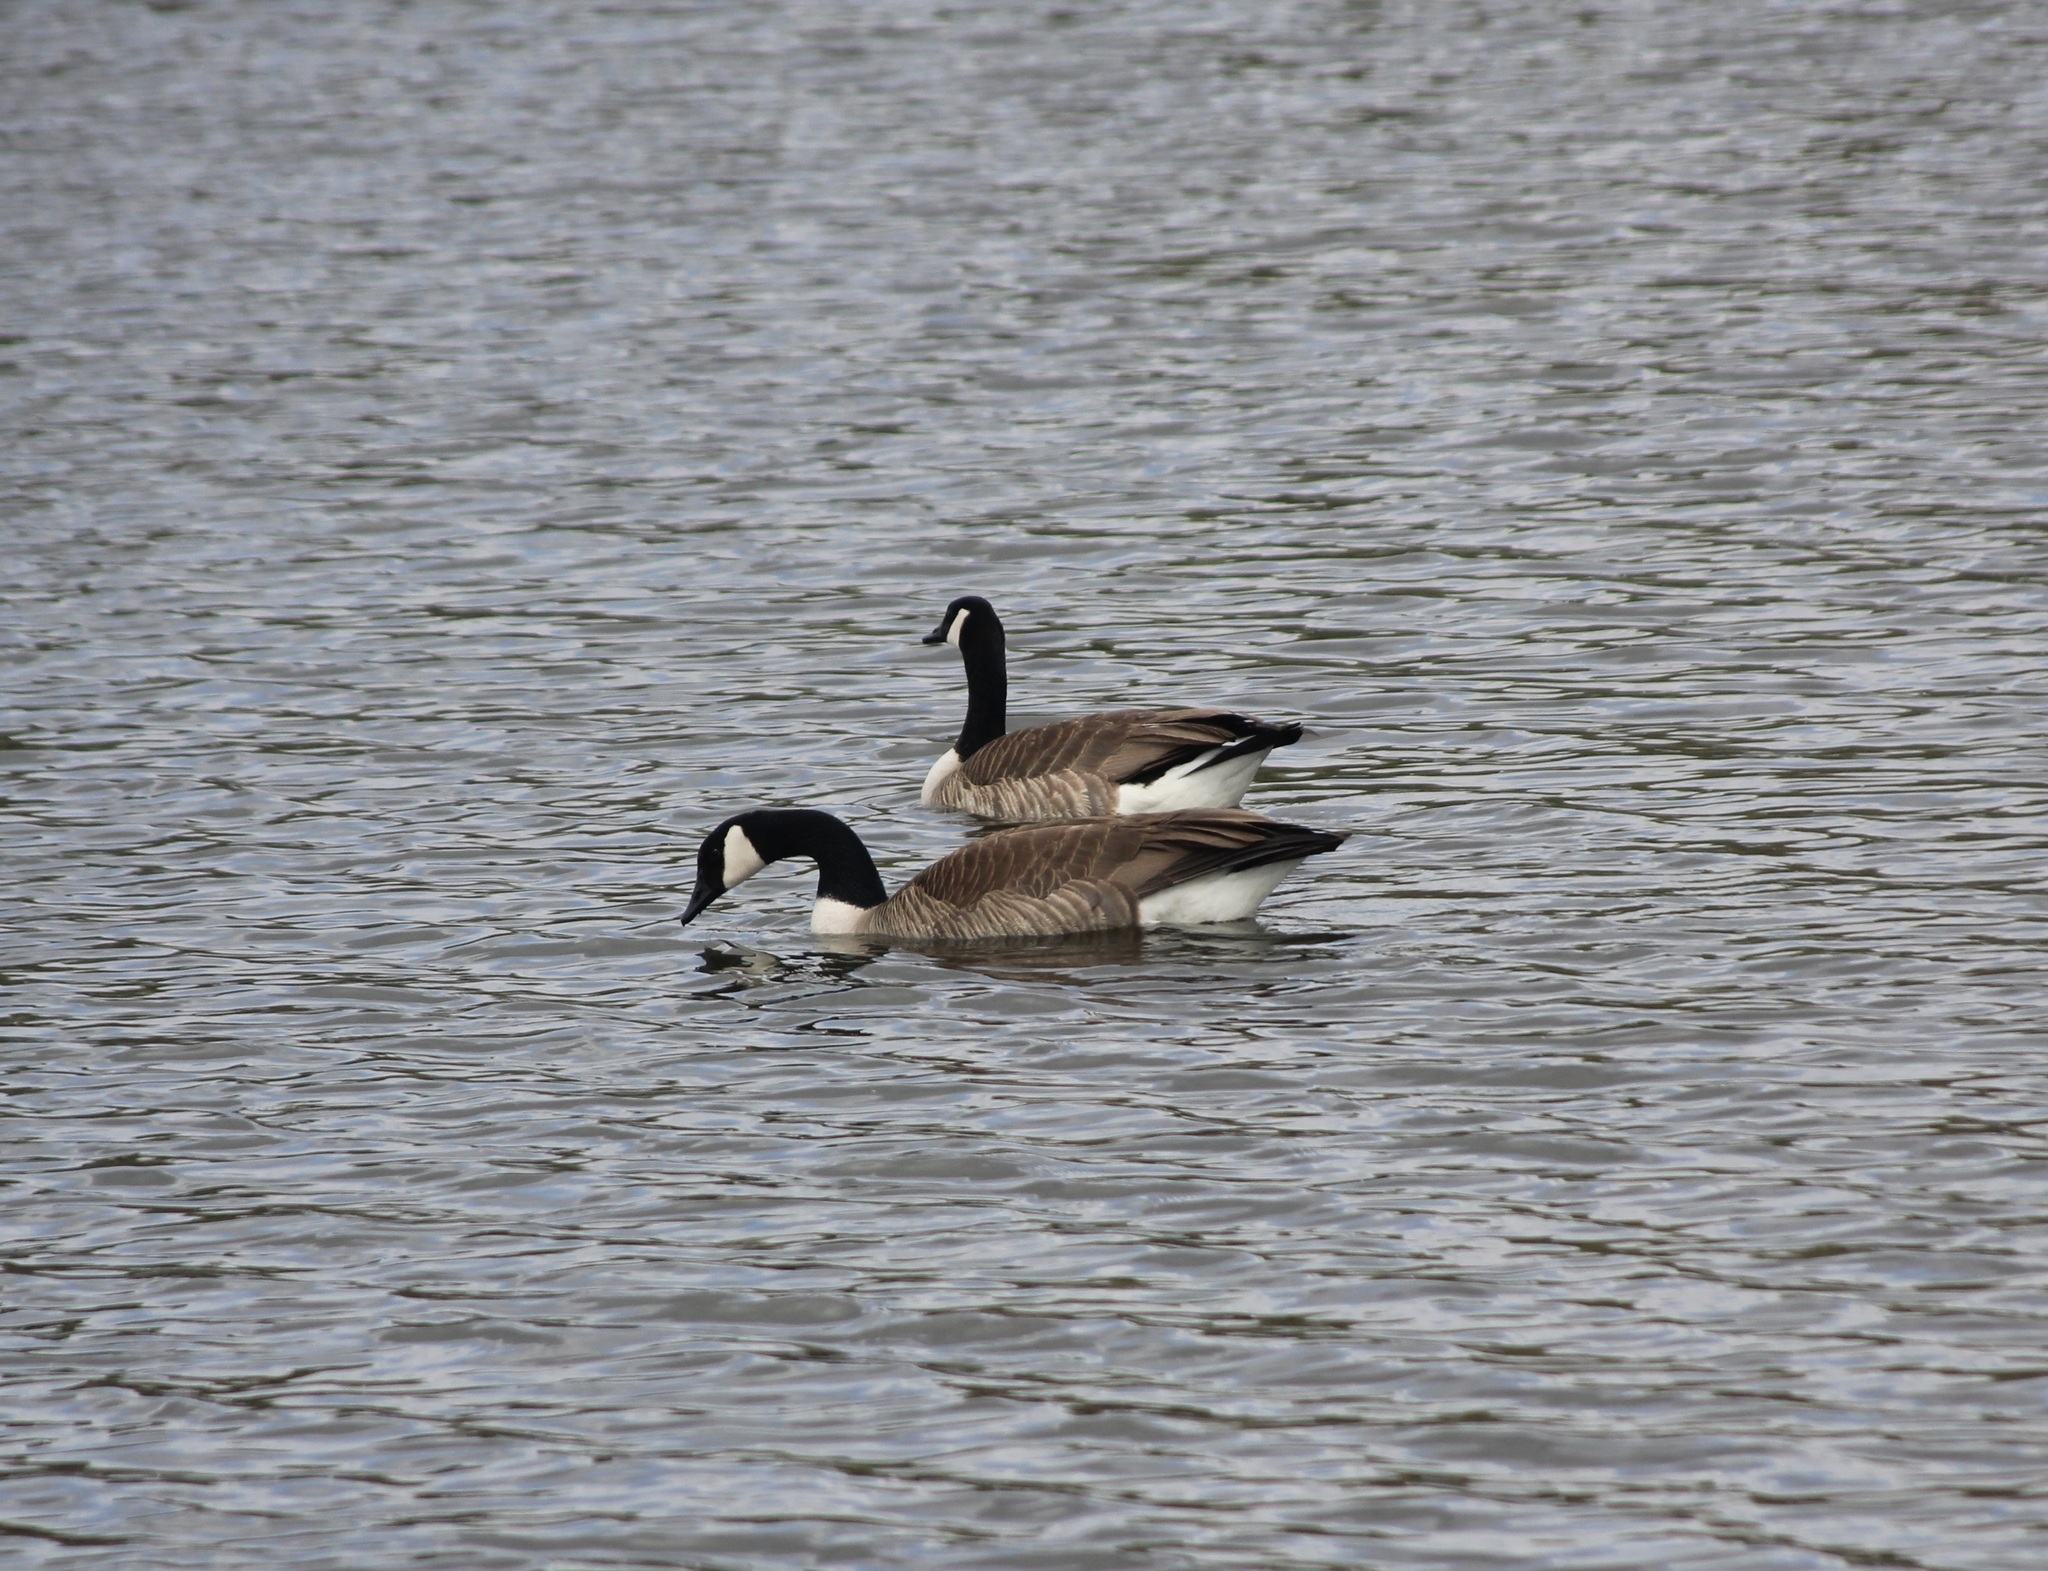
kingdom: Animalia
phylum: Chordata
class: Aves
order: Anseriformes
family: Anatidae
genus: Branta
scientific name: Branta canadensis
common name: Canada goose
